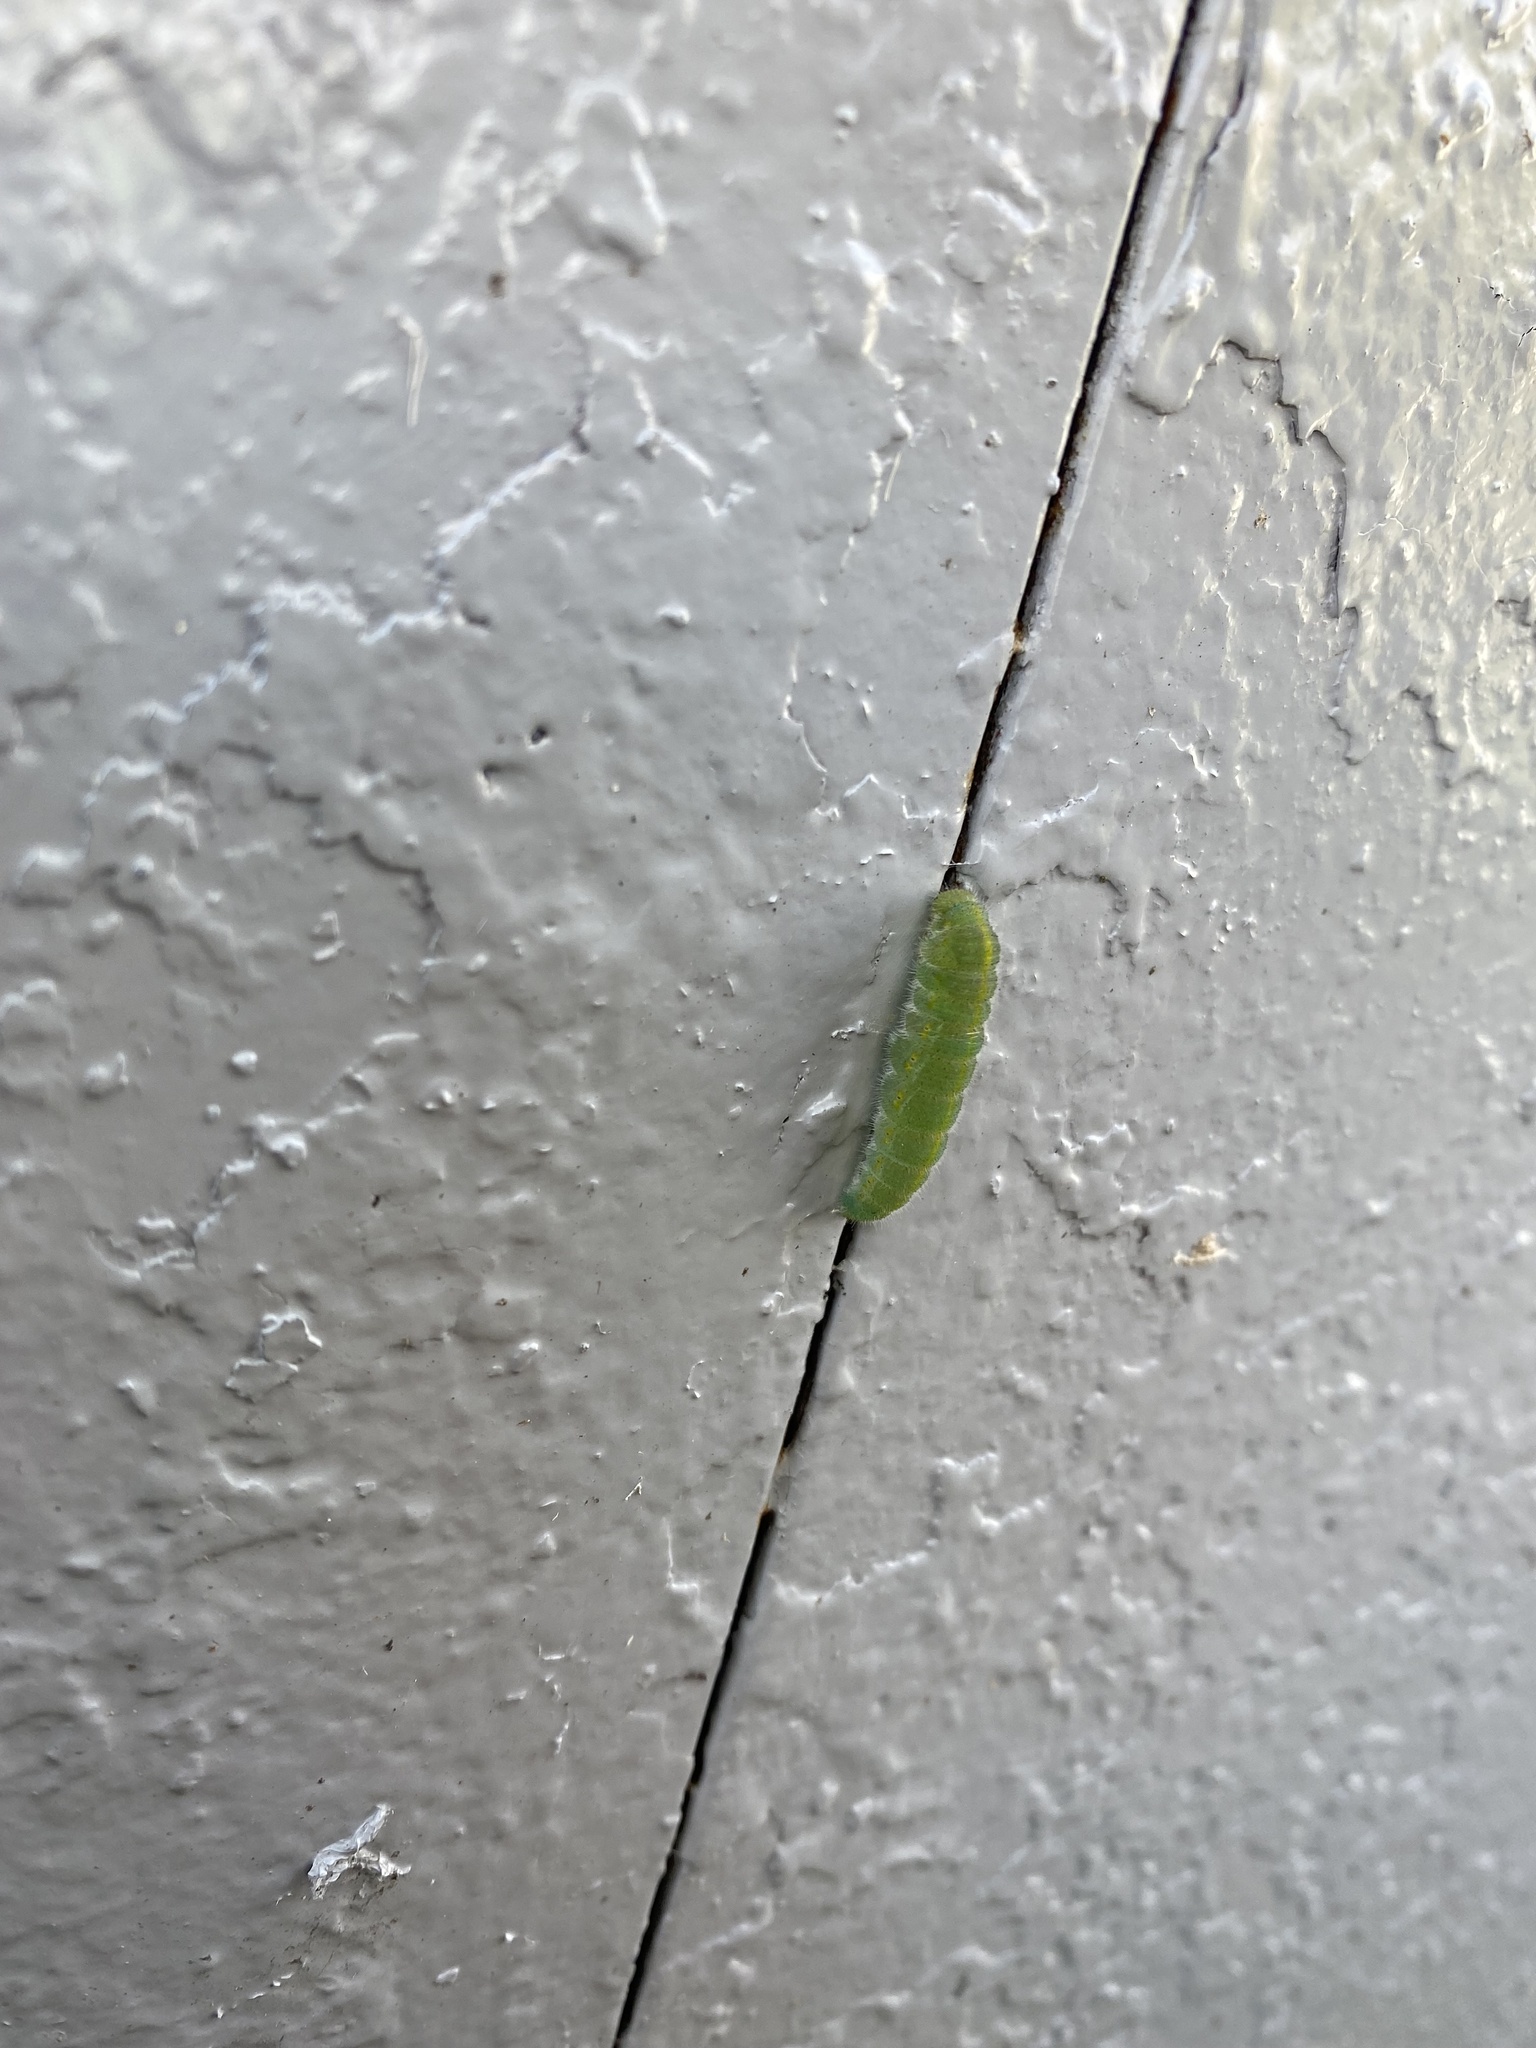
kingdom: Animalia
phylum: Arthropoda
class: Insecta
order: Lepidoptera
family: Pieridae
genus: Pieris
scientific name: Pieris rapae
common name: Small white
